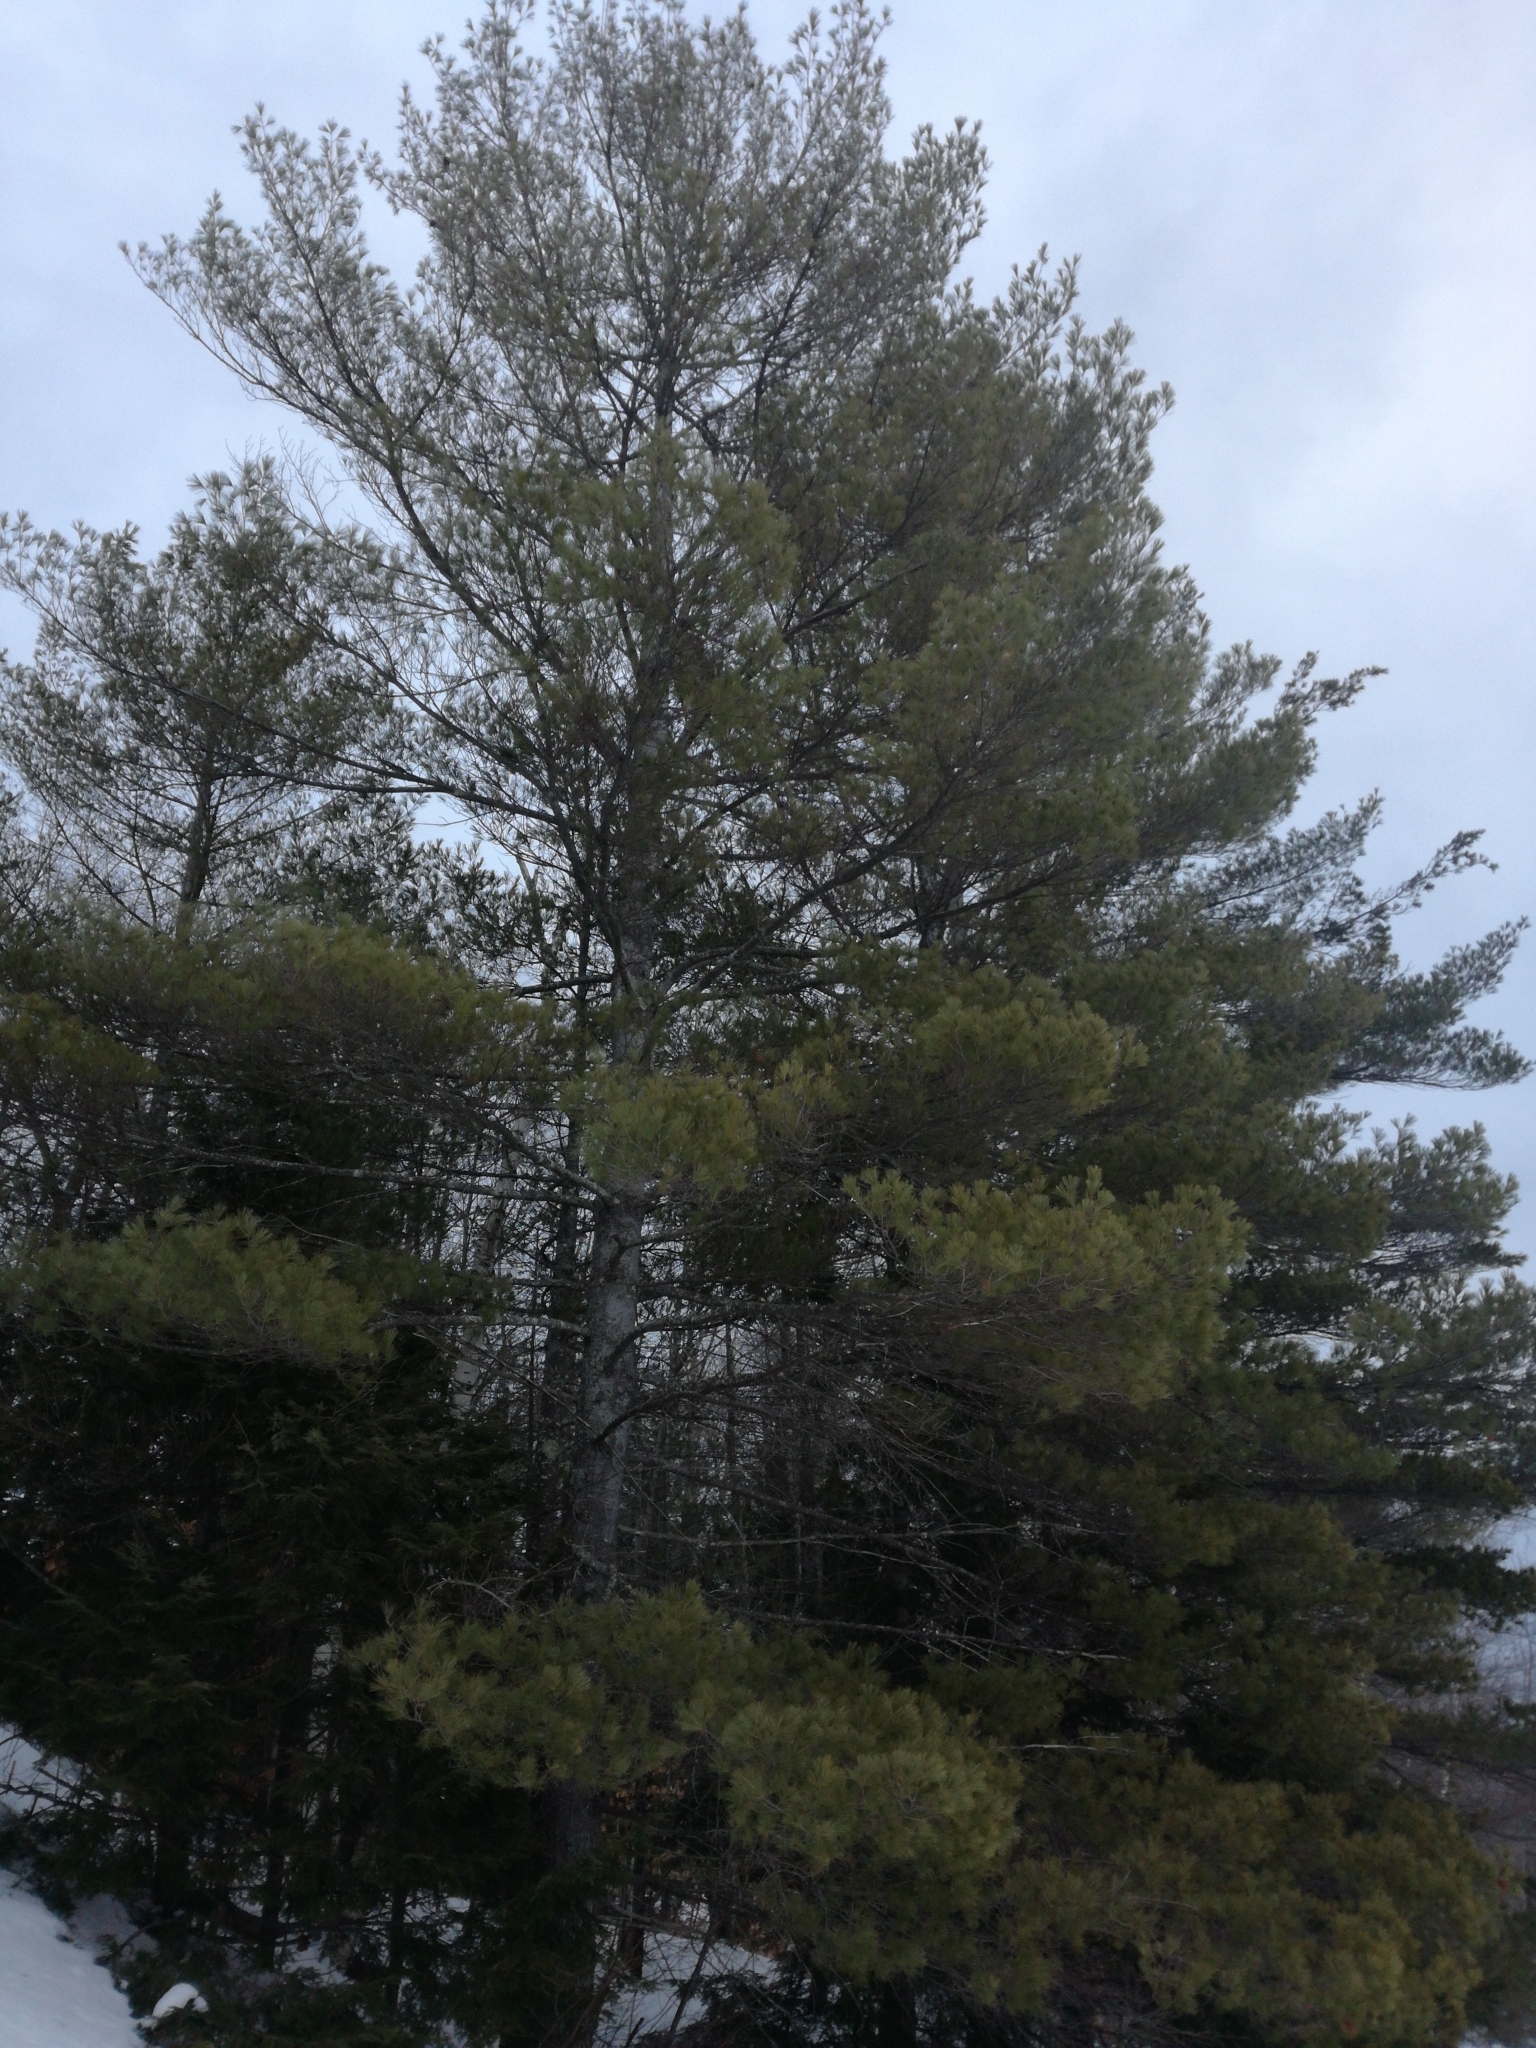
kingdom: Plantae
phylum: Tracheophyta
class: Pinopsida
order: Pinales
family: Pinaceae
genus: Pinus
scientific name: Pinus strobus
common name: Weymouth pine
